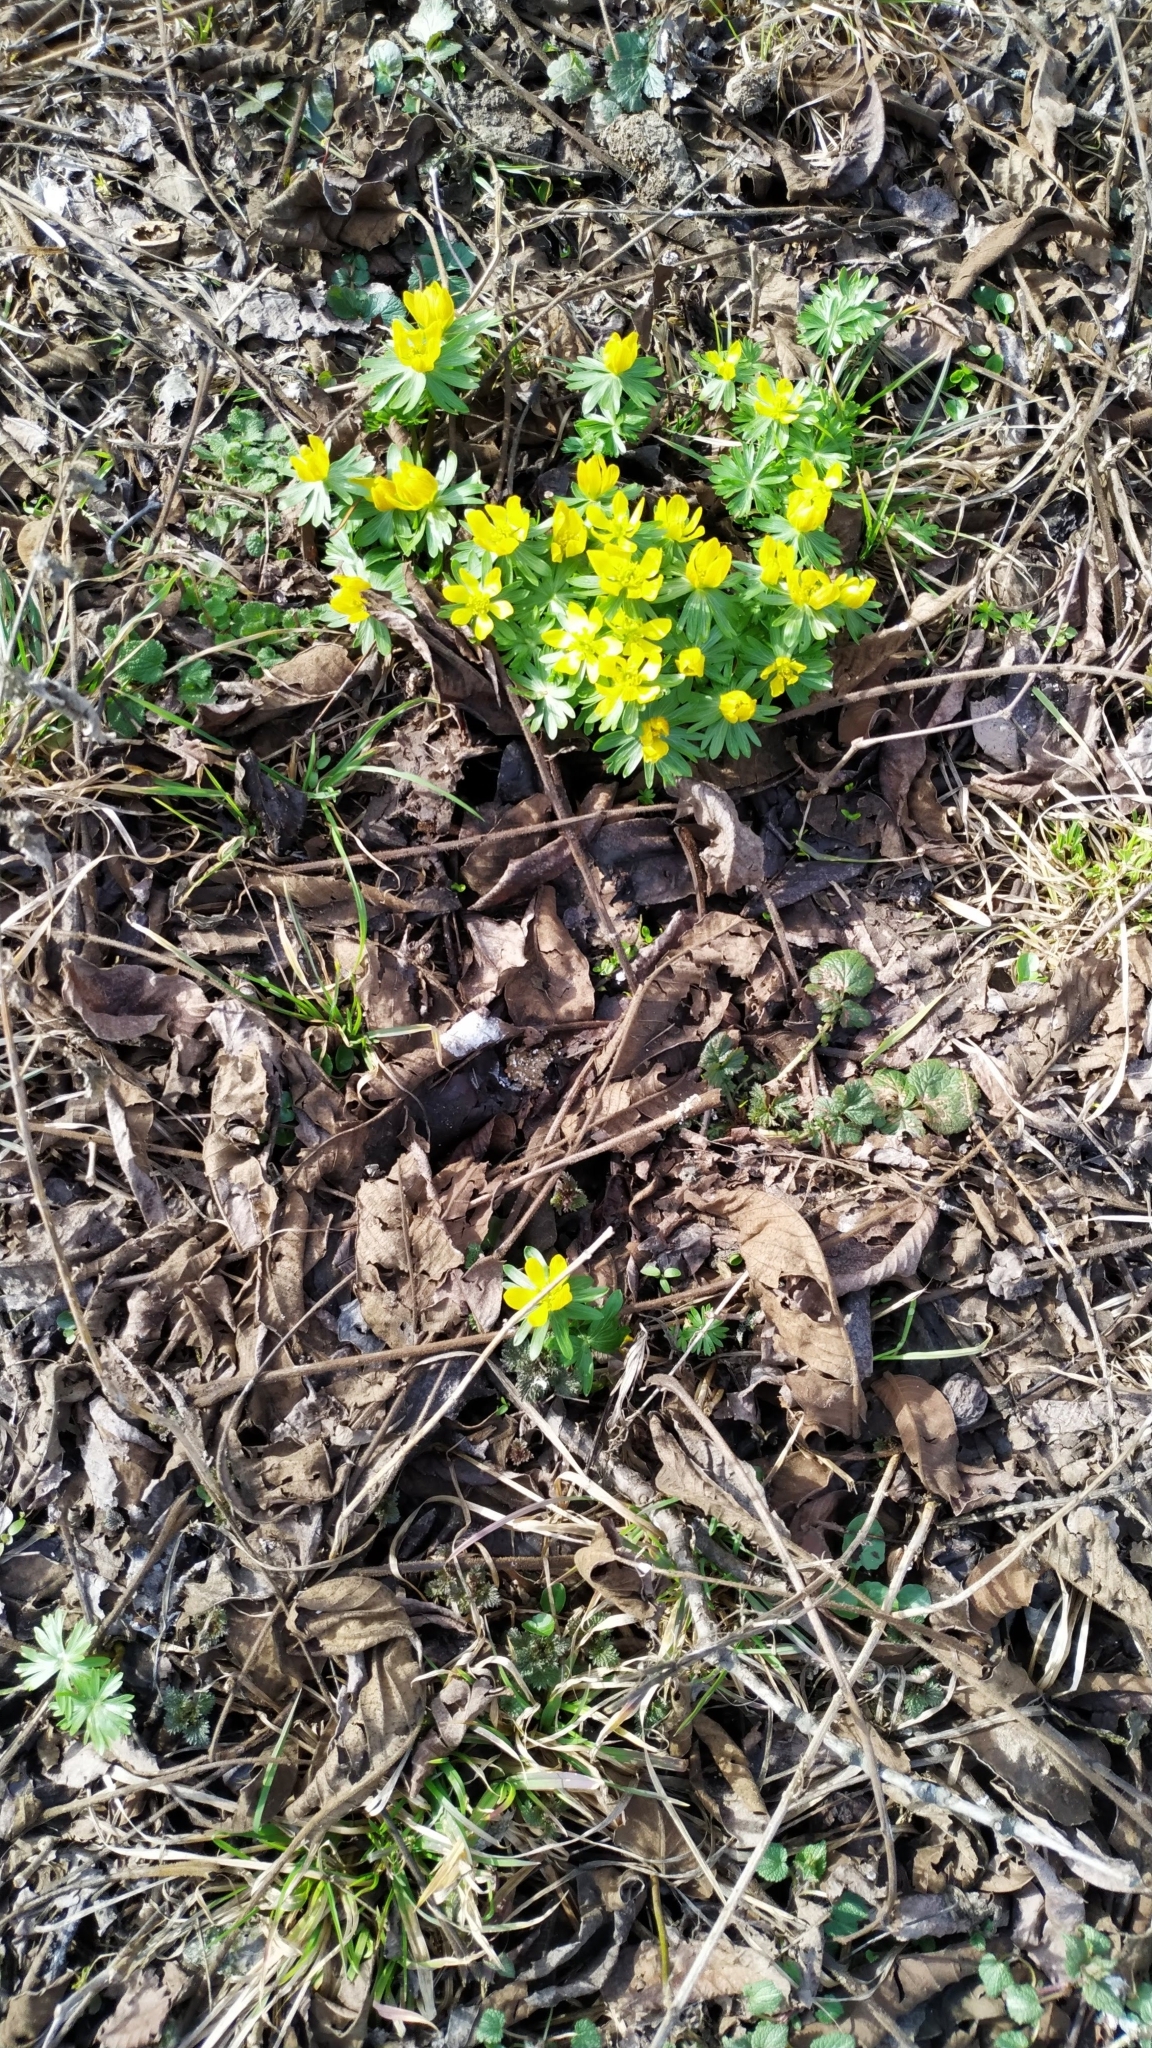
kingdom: Plantae
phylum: Tracheophyta
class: Magnoliopsida
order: Ranunculales
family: Ranunculaceae
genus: Eranthis
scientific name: Eranthis hyemalis
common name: Winter aconite
